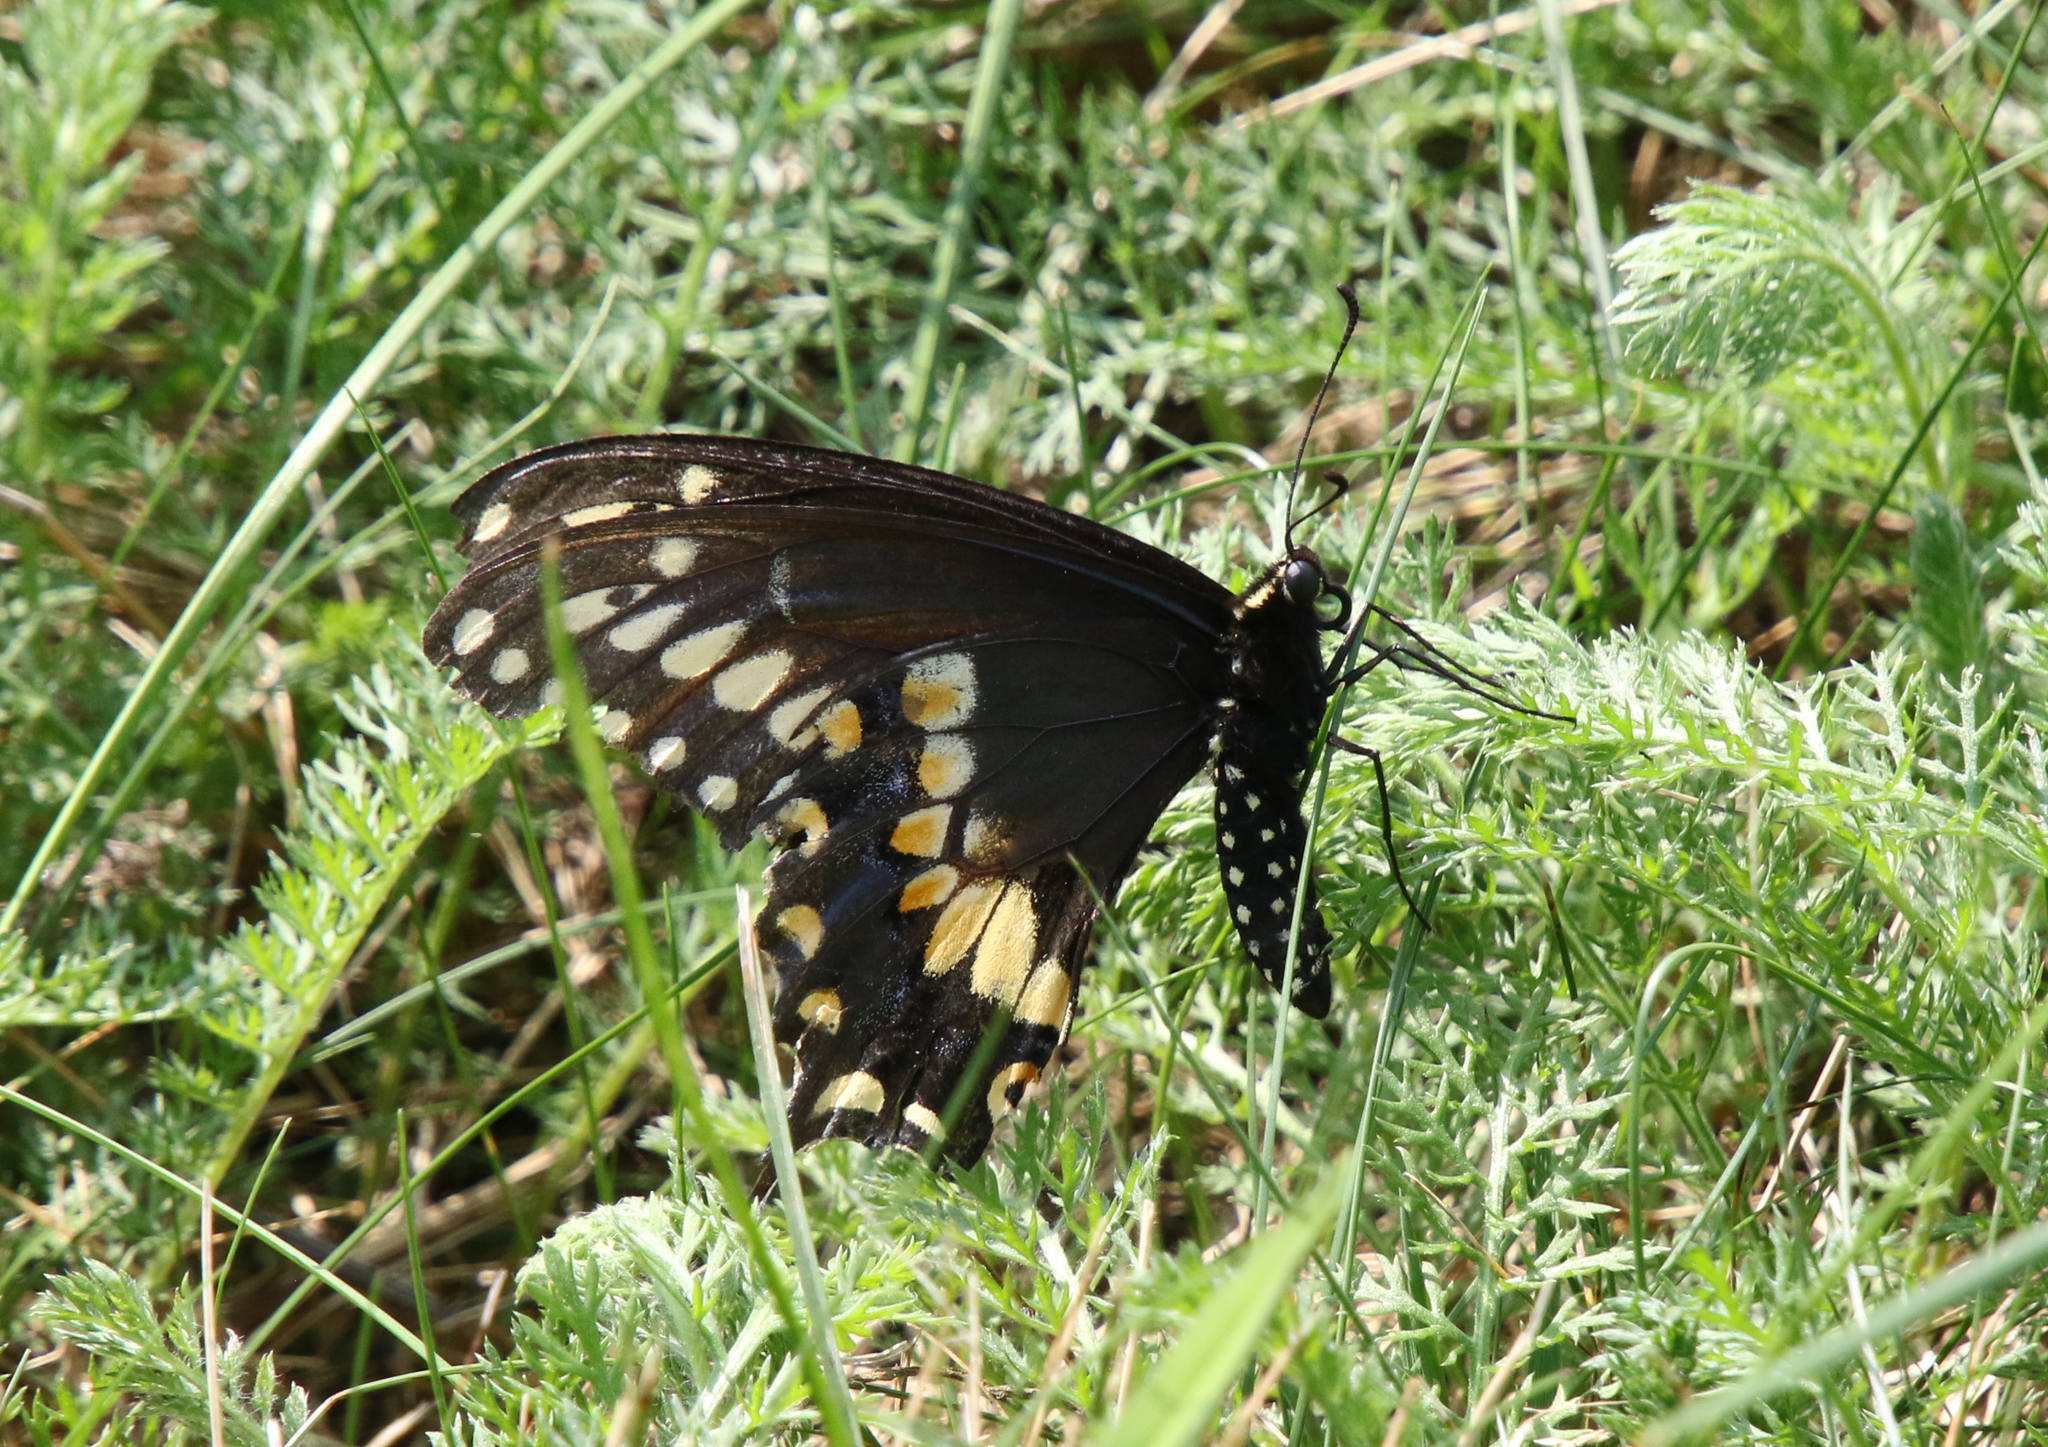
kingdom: Animalia
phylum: Arthropoda
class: Insecta
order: Lepidoptera
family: Papilionidae
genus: Papilio
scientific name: Papilio polyxenes
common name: Black swallowtail
